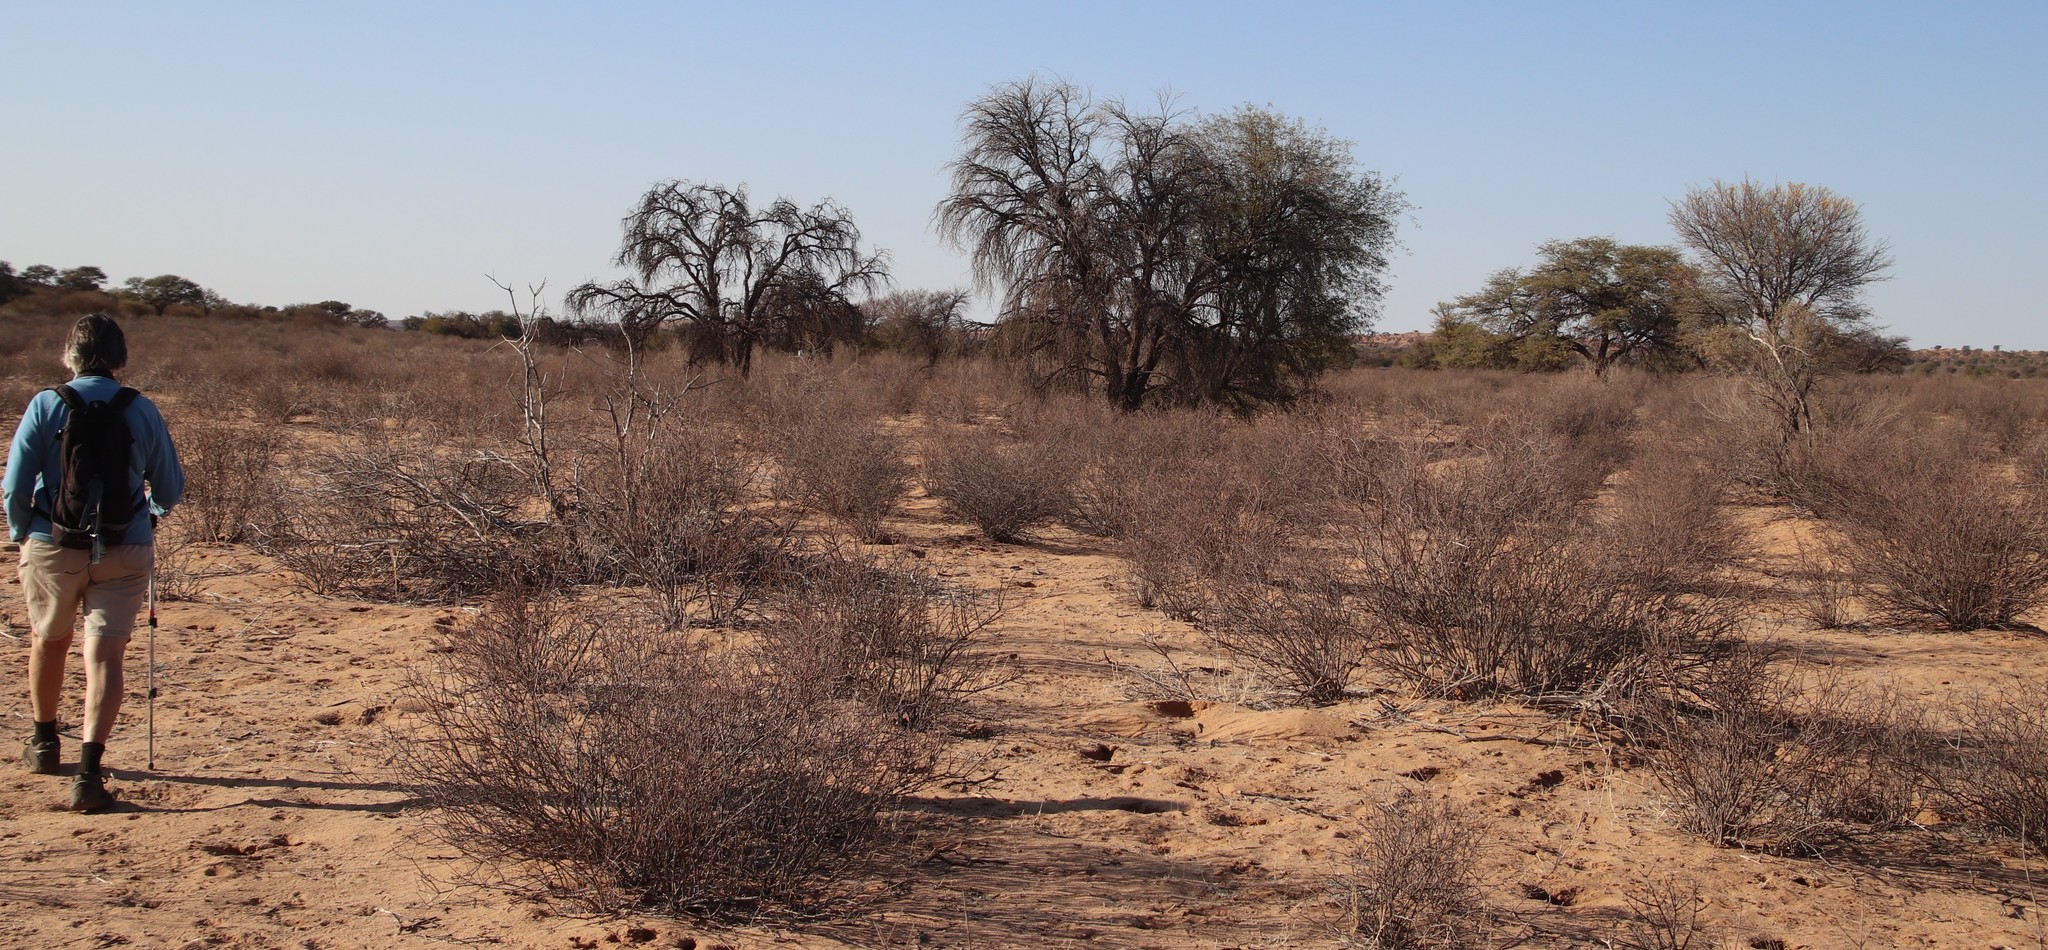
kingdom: Plantae
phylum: Tracheophyta
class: Magnoliopsida
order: Lamiales
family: Bignoniaceae
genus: Rhigozum
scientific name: Rhigozum trichotomum
